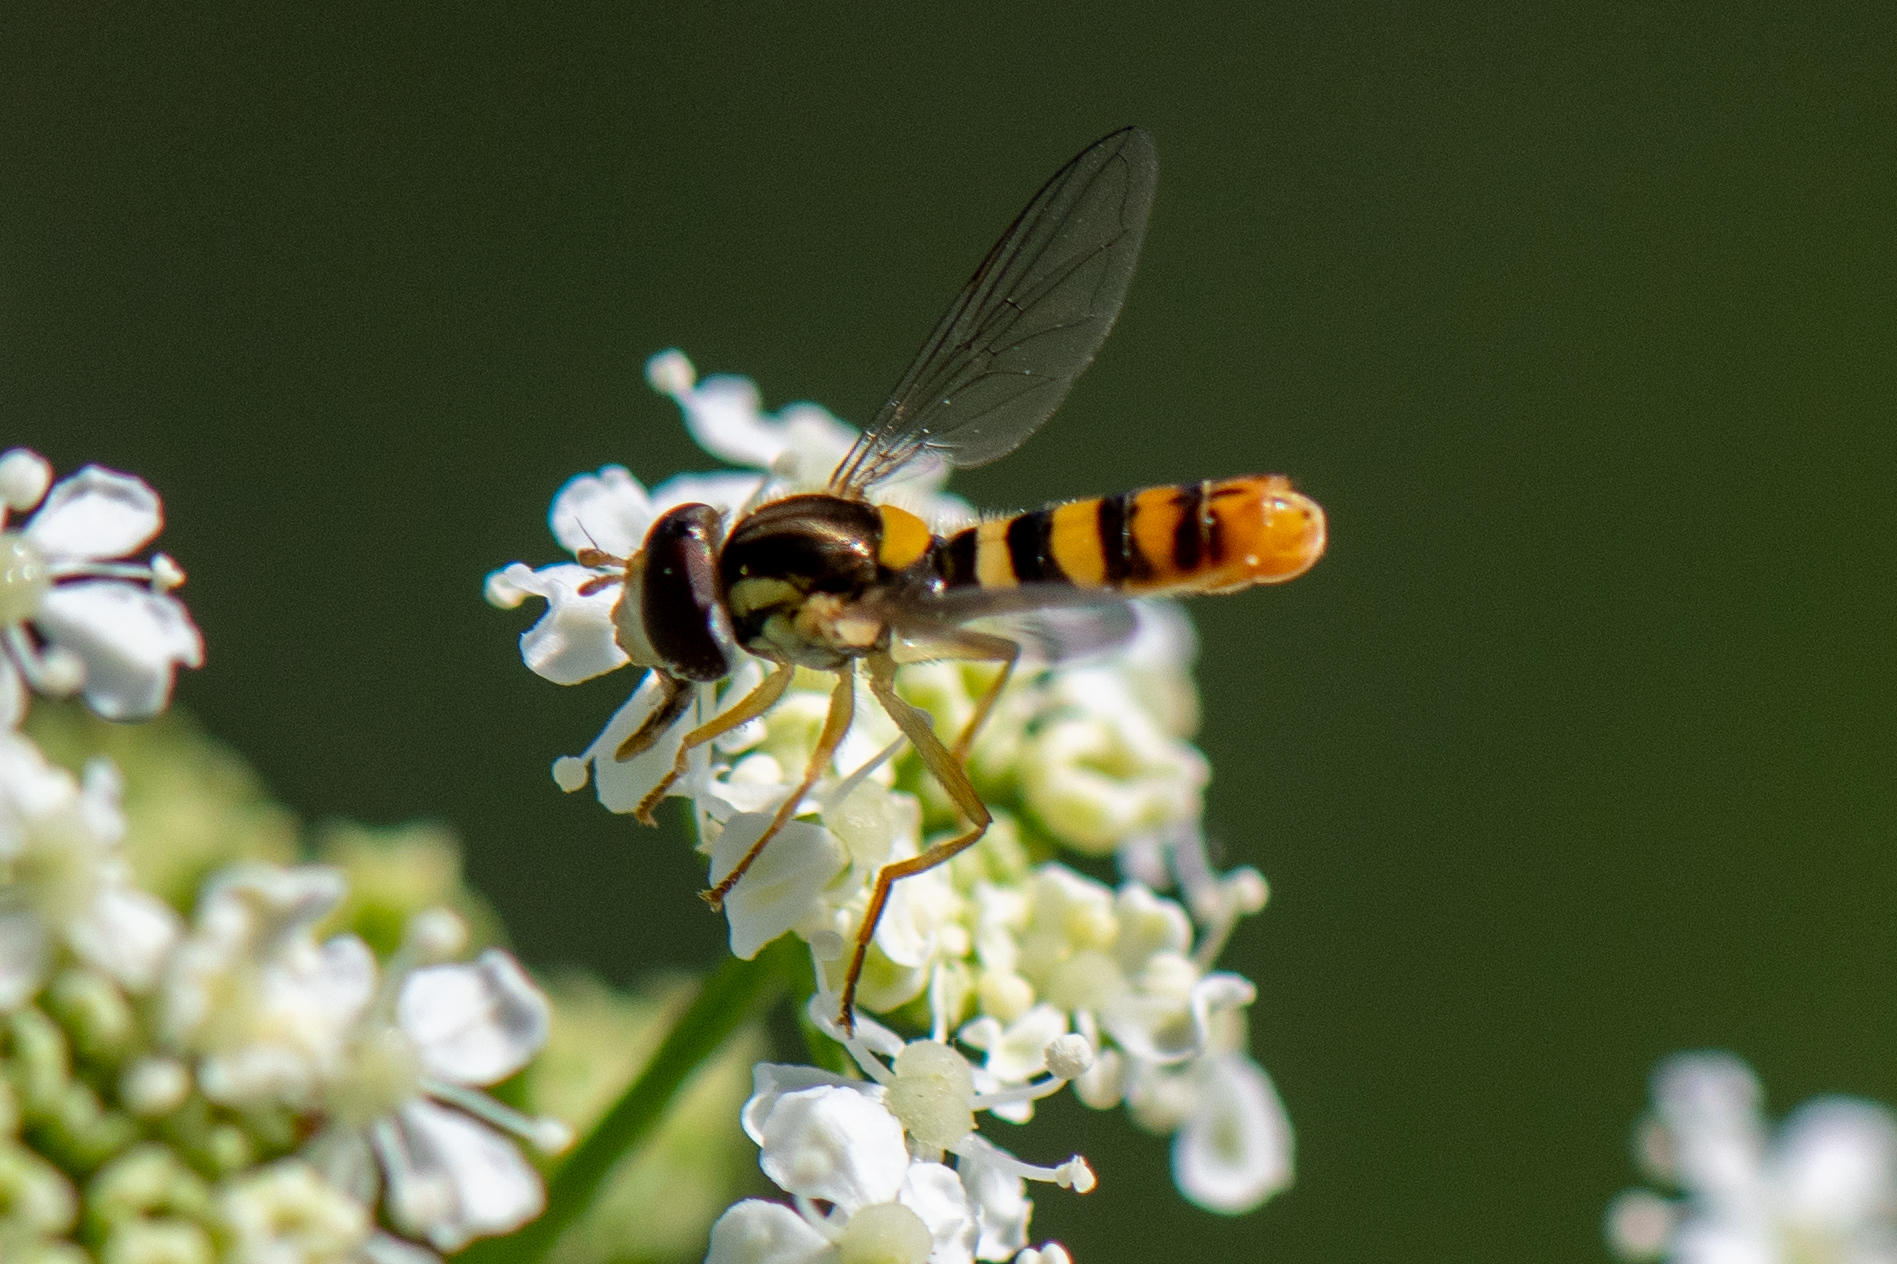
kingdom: Animalia
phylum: Arthropoda
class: Insecta
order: Diptera
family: Syrphidae
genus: Sphaerophoria
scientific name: Sphaerophoria sulphuripes
